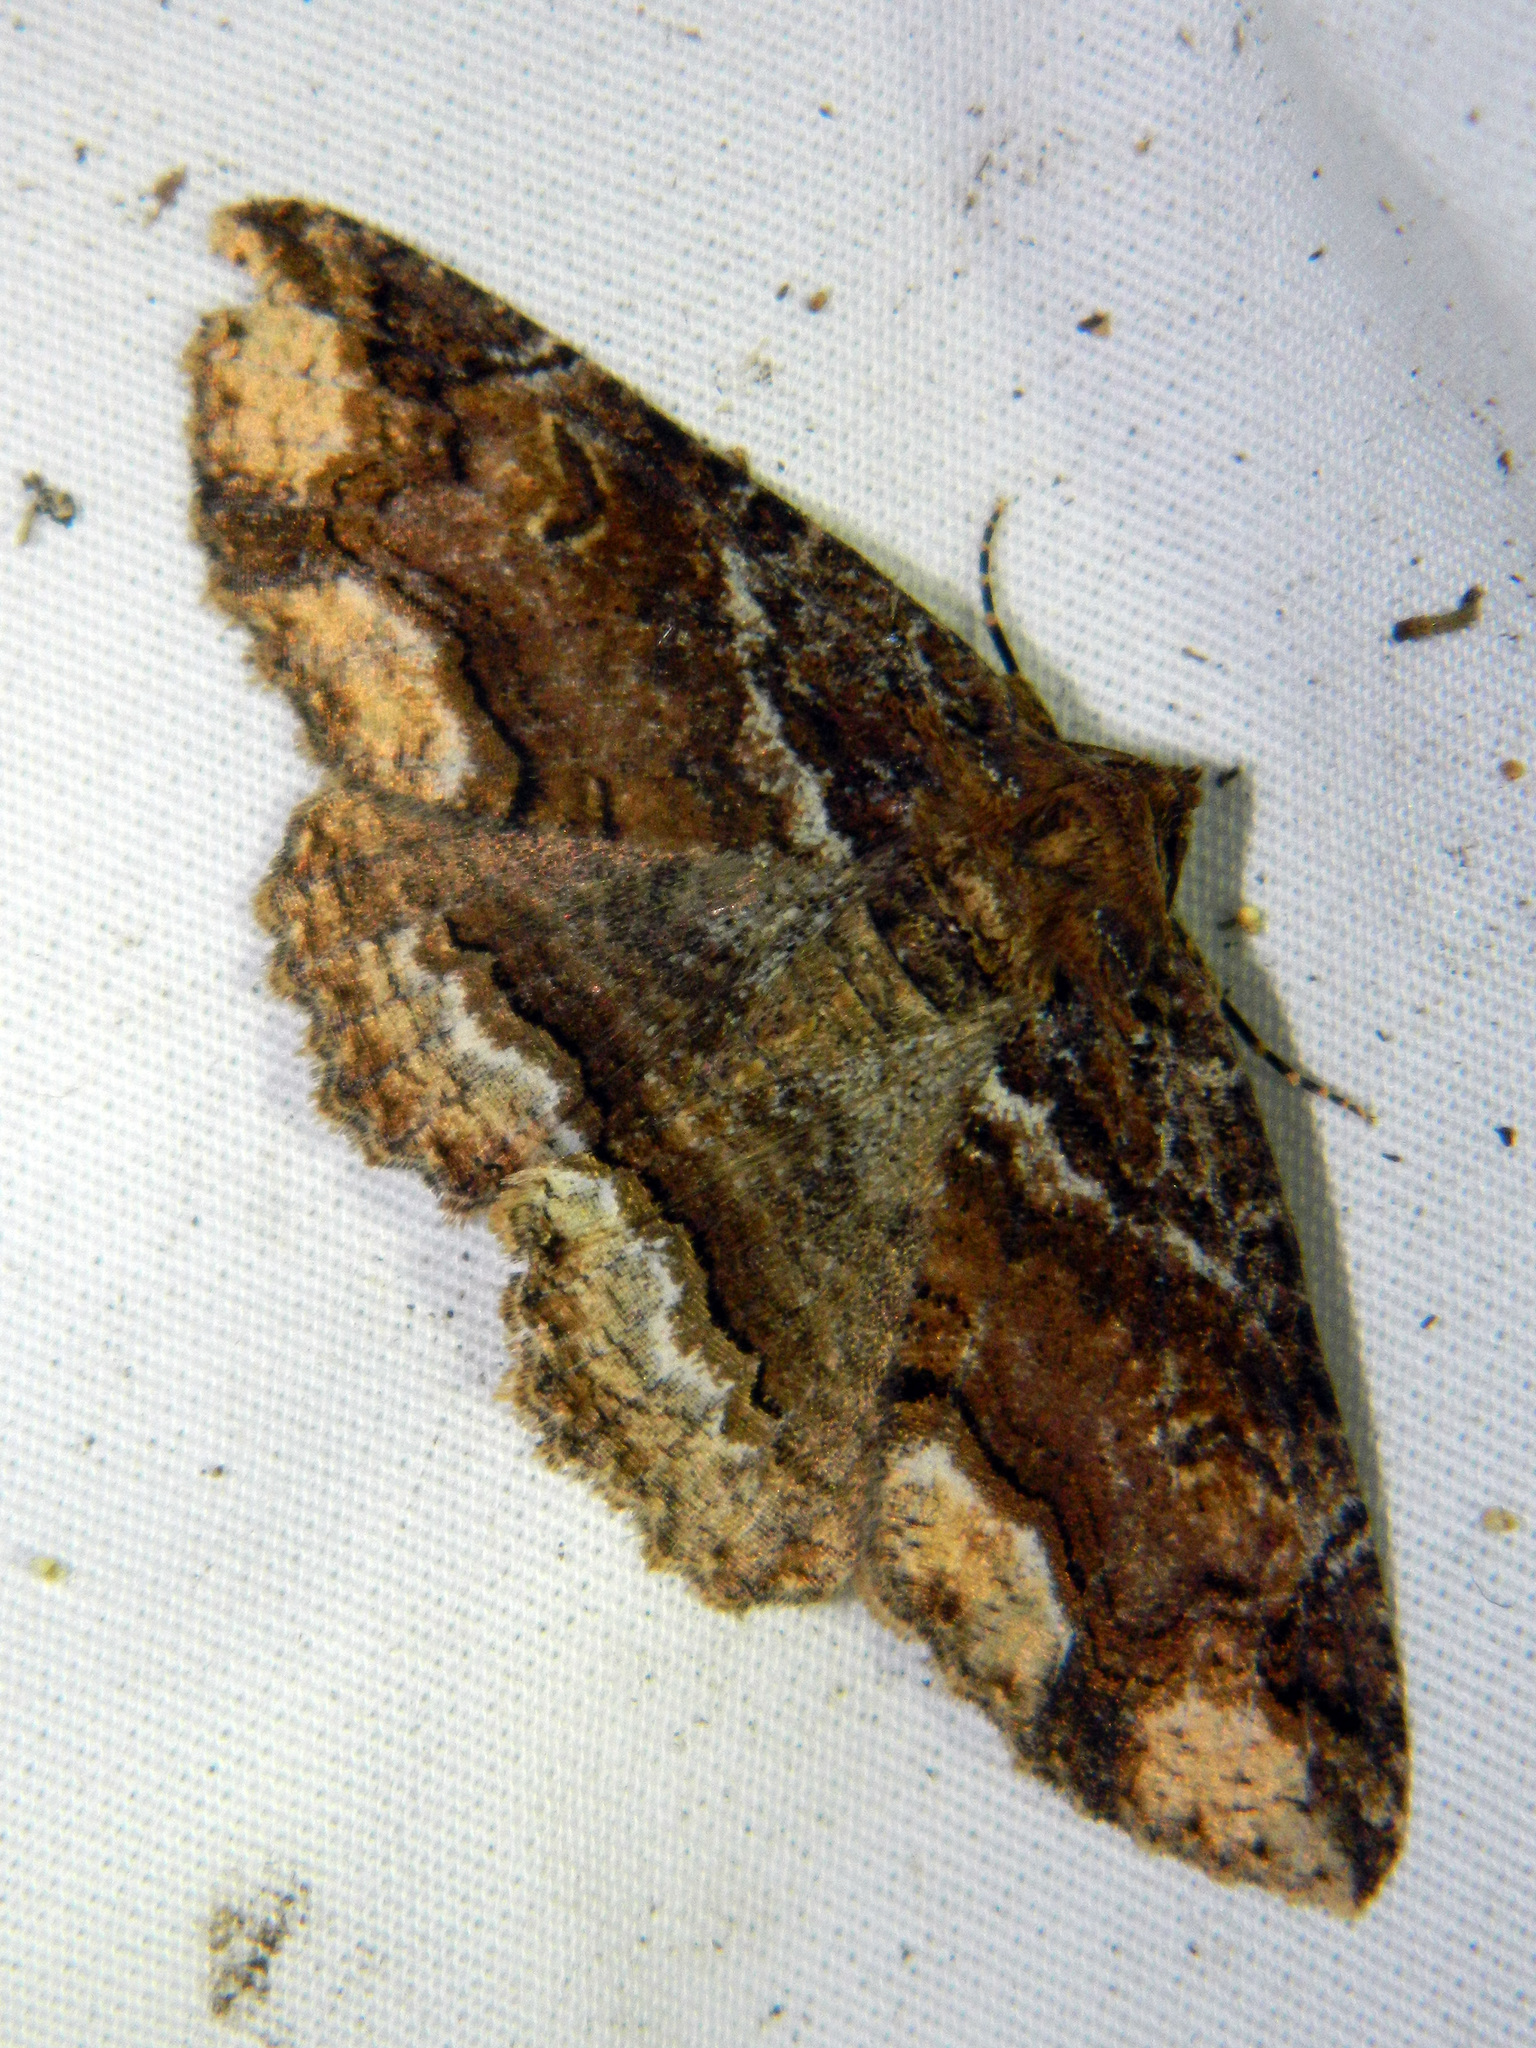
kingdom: Animalia
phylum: Arthropoda
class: Insecta
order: Lepidoptera
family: Erebidae
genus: Zale
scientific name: Zale minerea
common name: Colorful zale moth
